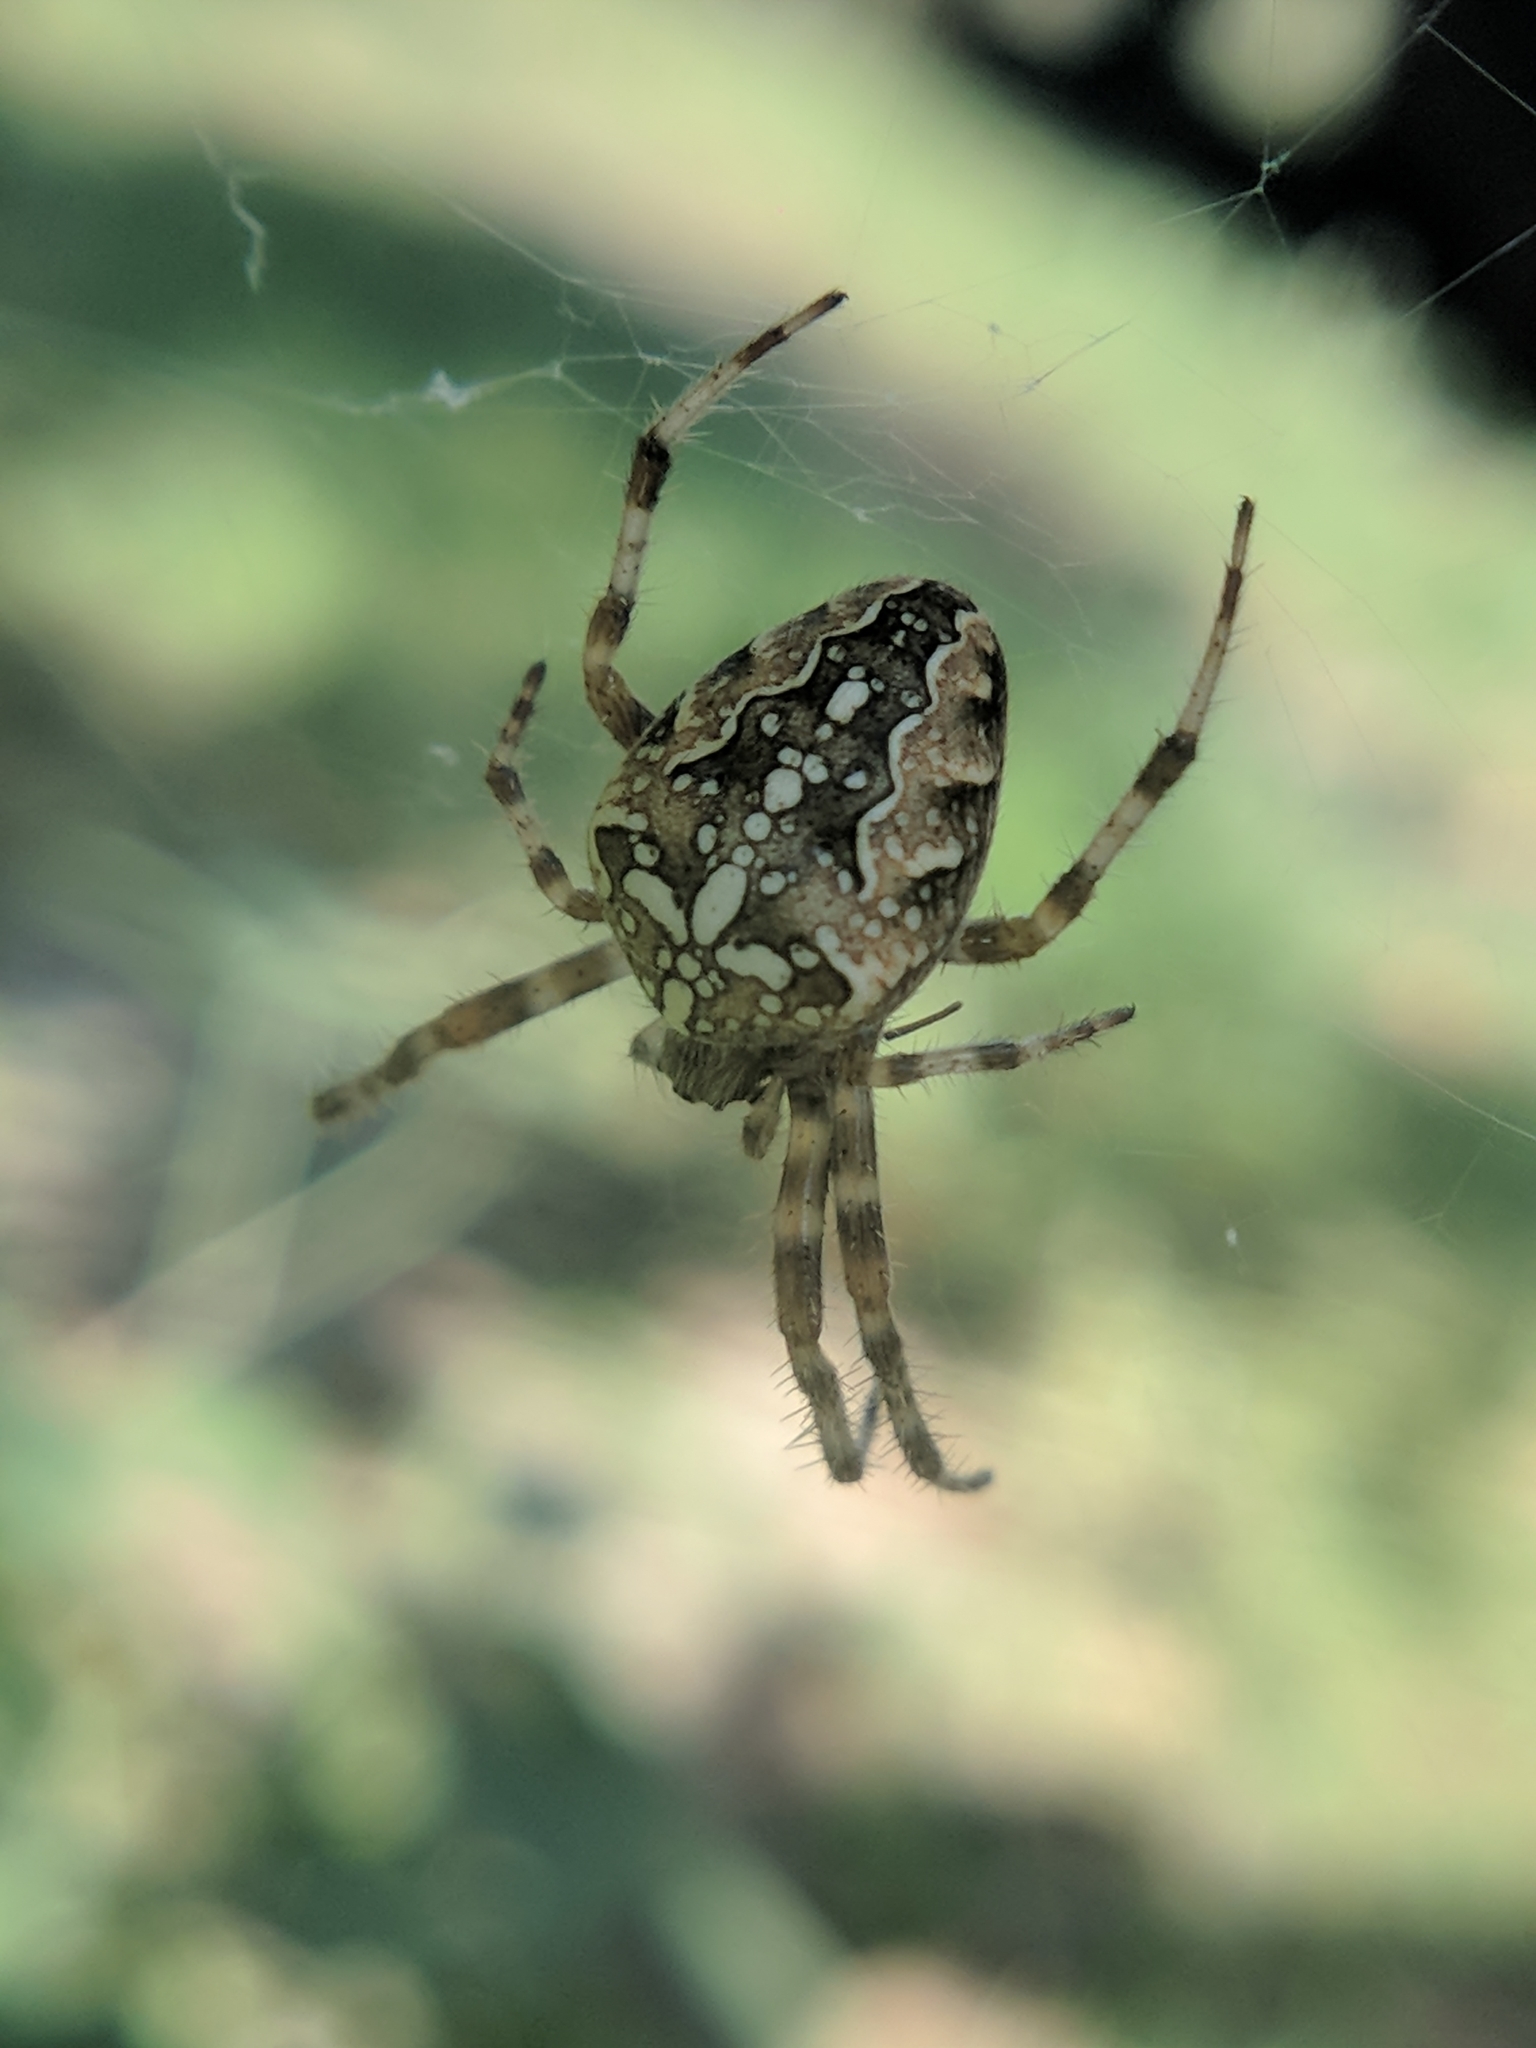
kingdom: Animalia
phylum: Arthropoda
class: Arachnida
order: Araneae
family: Araneidae
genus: Araneus
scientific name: Araneus diadematus
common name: Cross orbweaver
